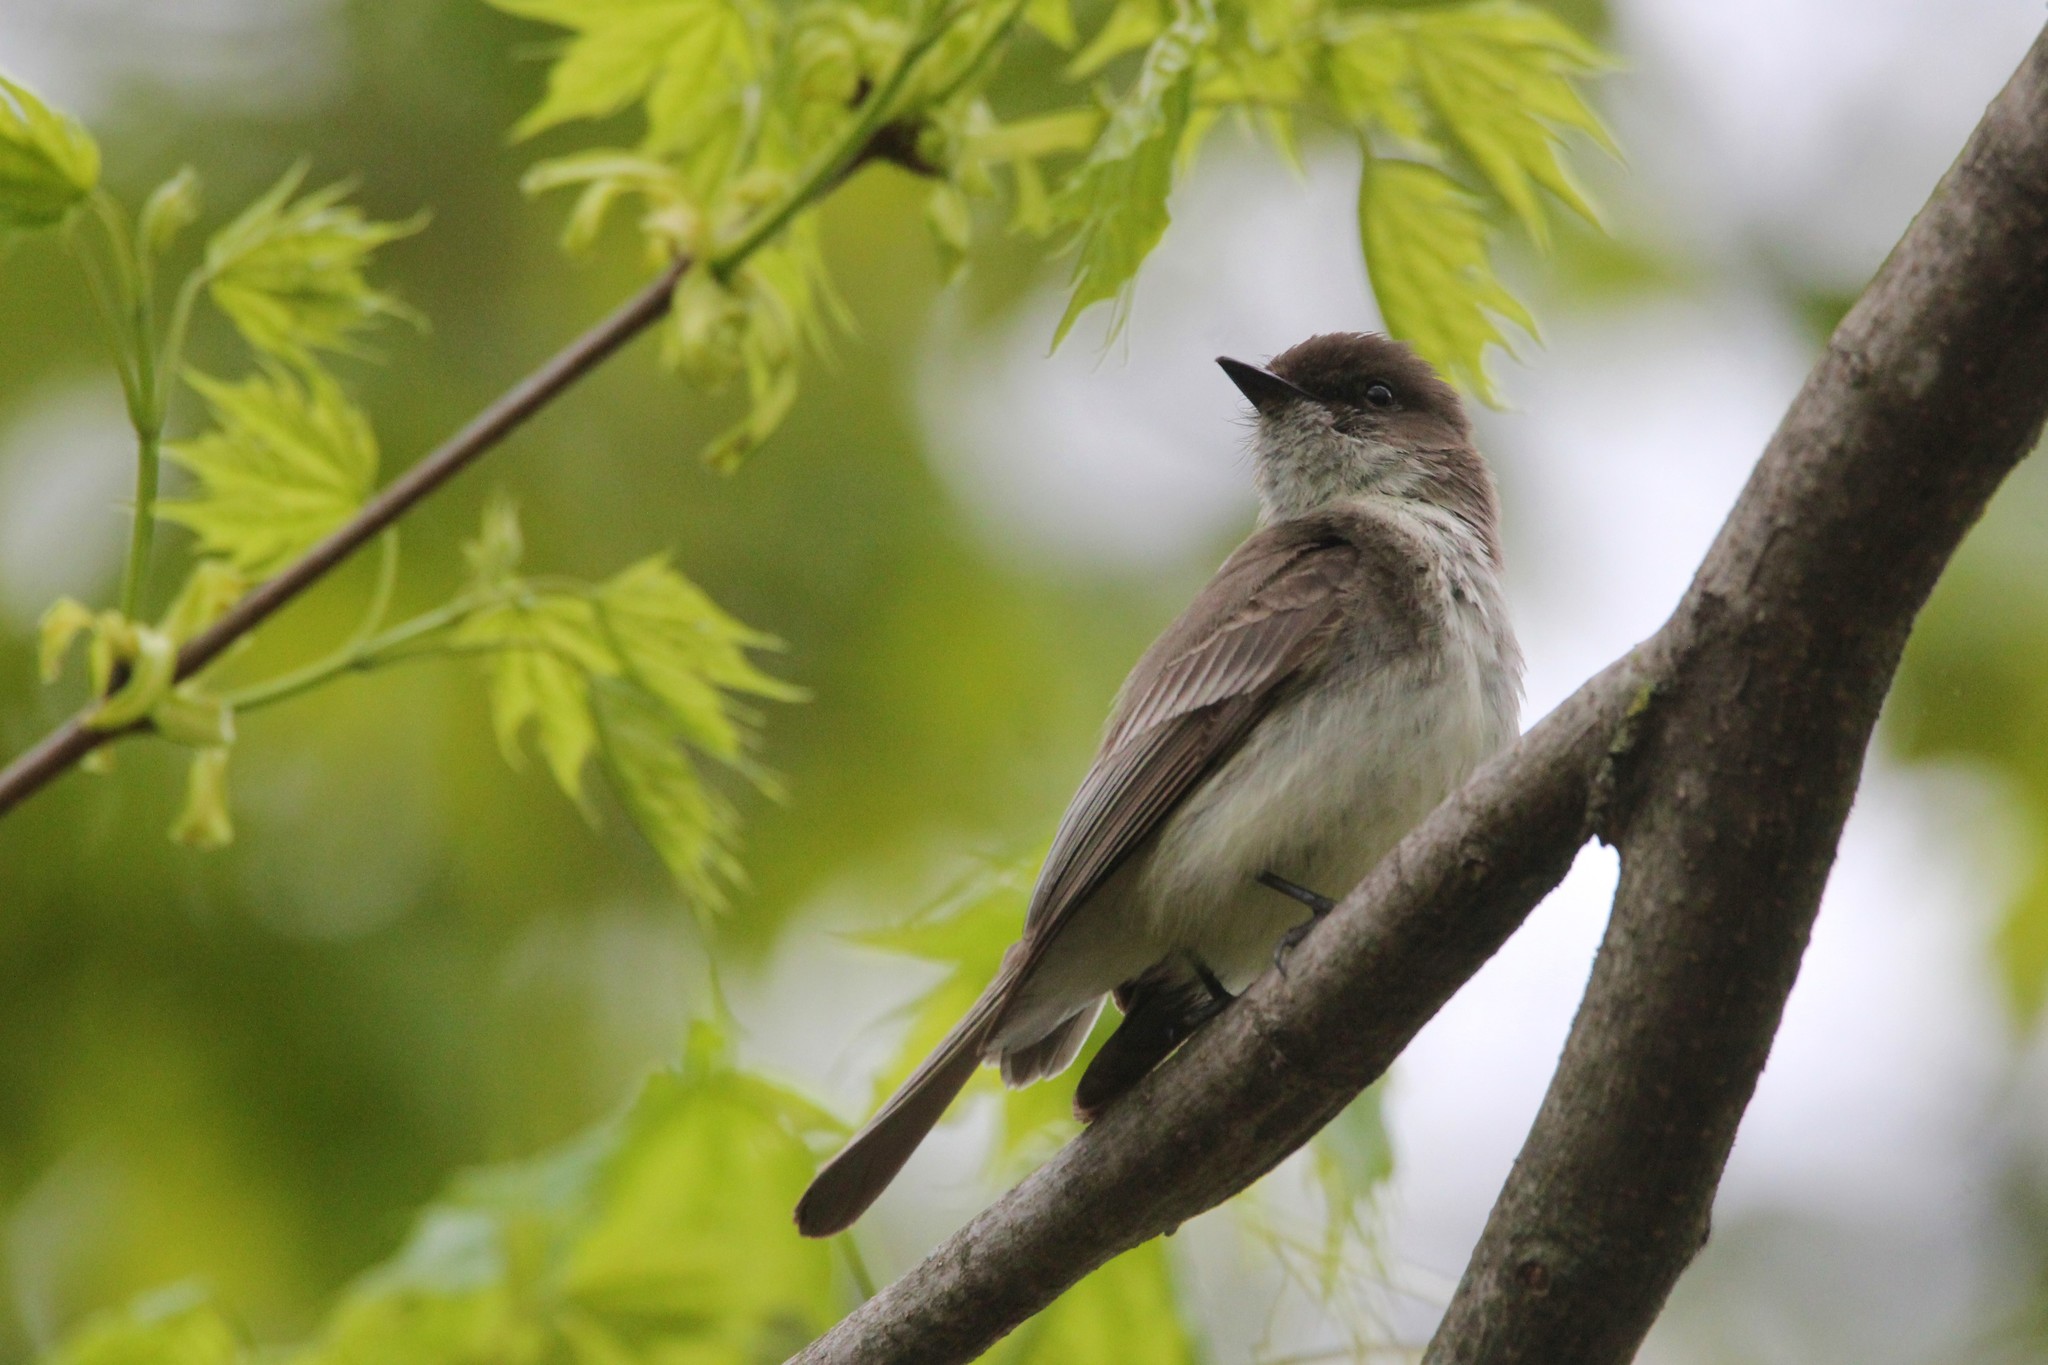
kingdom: Animalia
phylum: Chordata
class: Aves
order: Passeriformes
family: Tyrannidae
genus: Sayornis
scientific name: Sayornis phoebe
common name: Eastern phoebe
